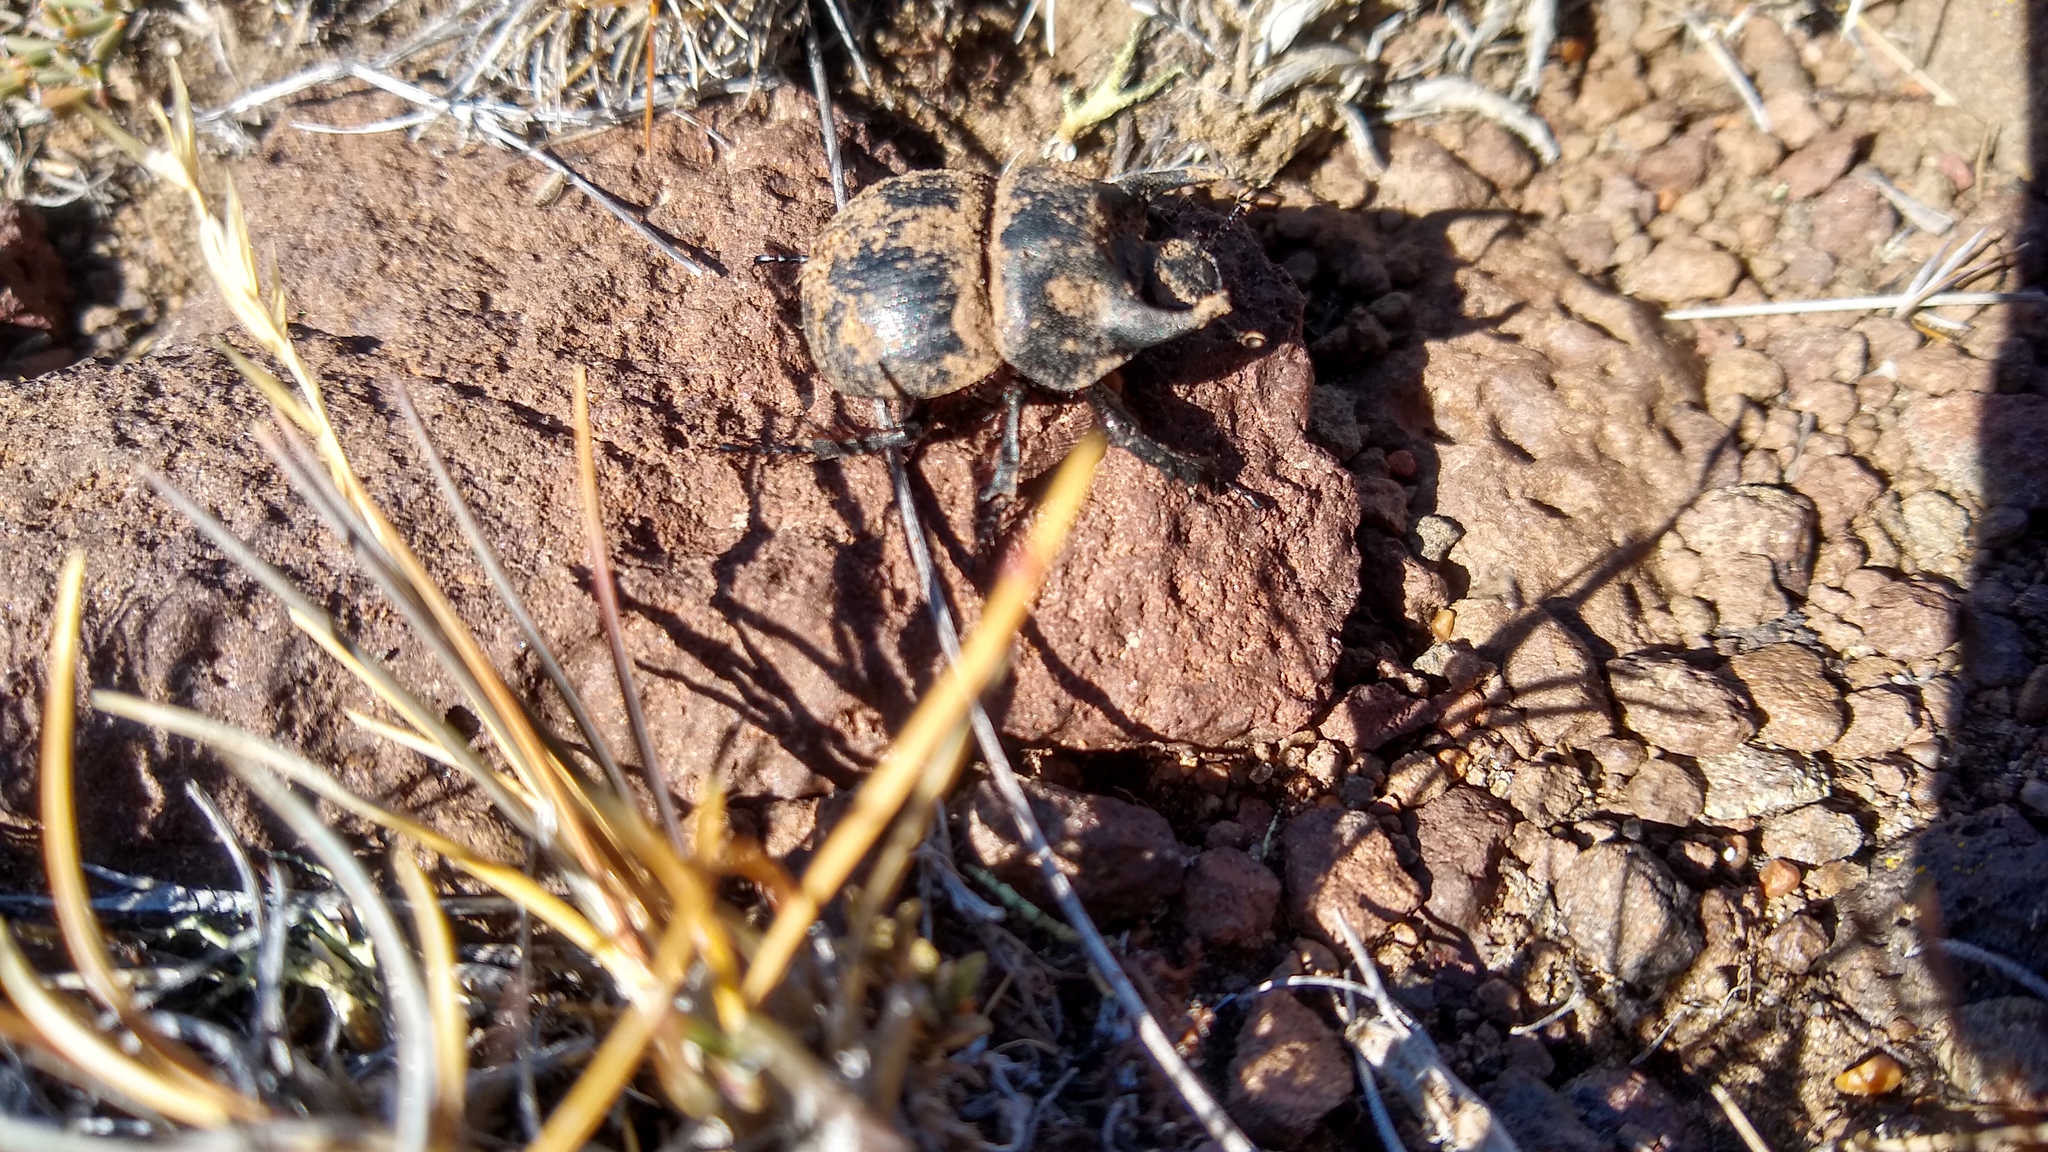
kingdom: Animalia
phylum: Arthropoda
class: Insecta
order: Coleoptera
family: Geotrupidae
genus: Taurocerastes
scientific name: Taurocerastes patagonicus
